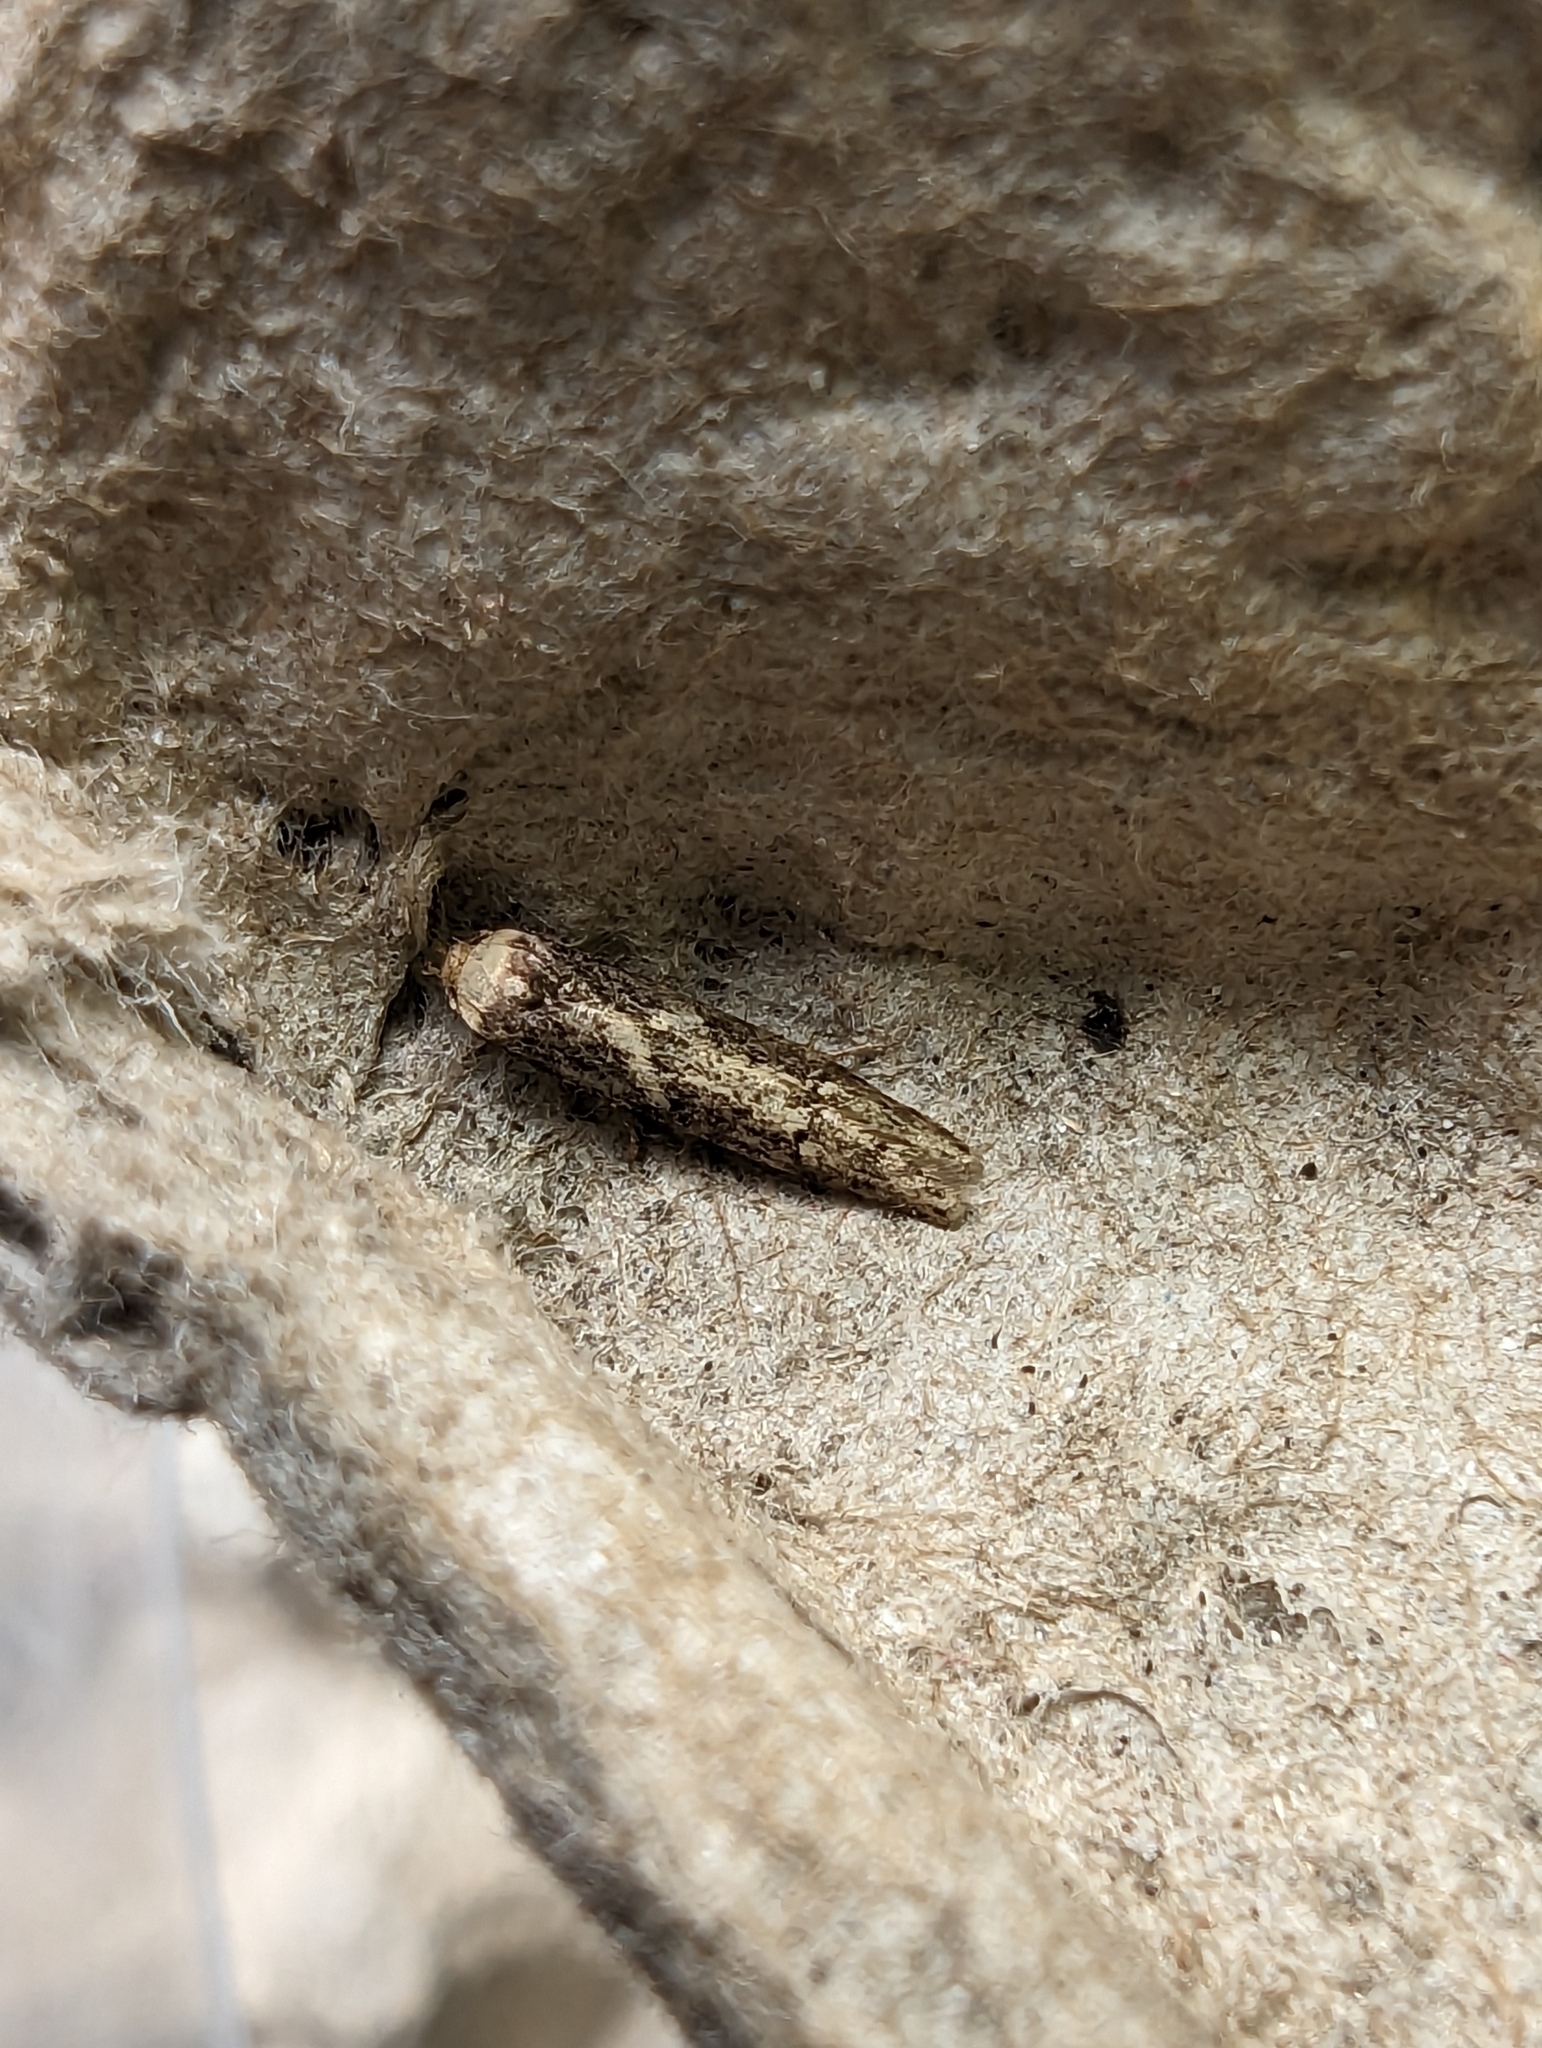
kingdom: Animalia
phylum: Arthropoda
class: Insecta
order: Lepidoptera
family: Blastobasidae
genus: Blastobasis
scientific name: Blastobasis adustella
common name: Dingy dowd
